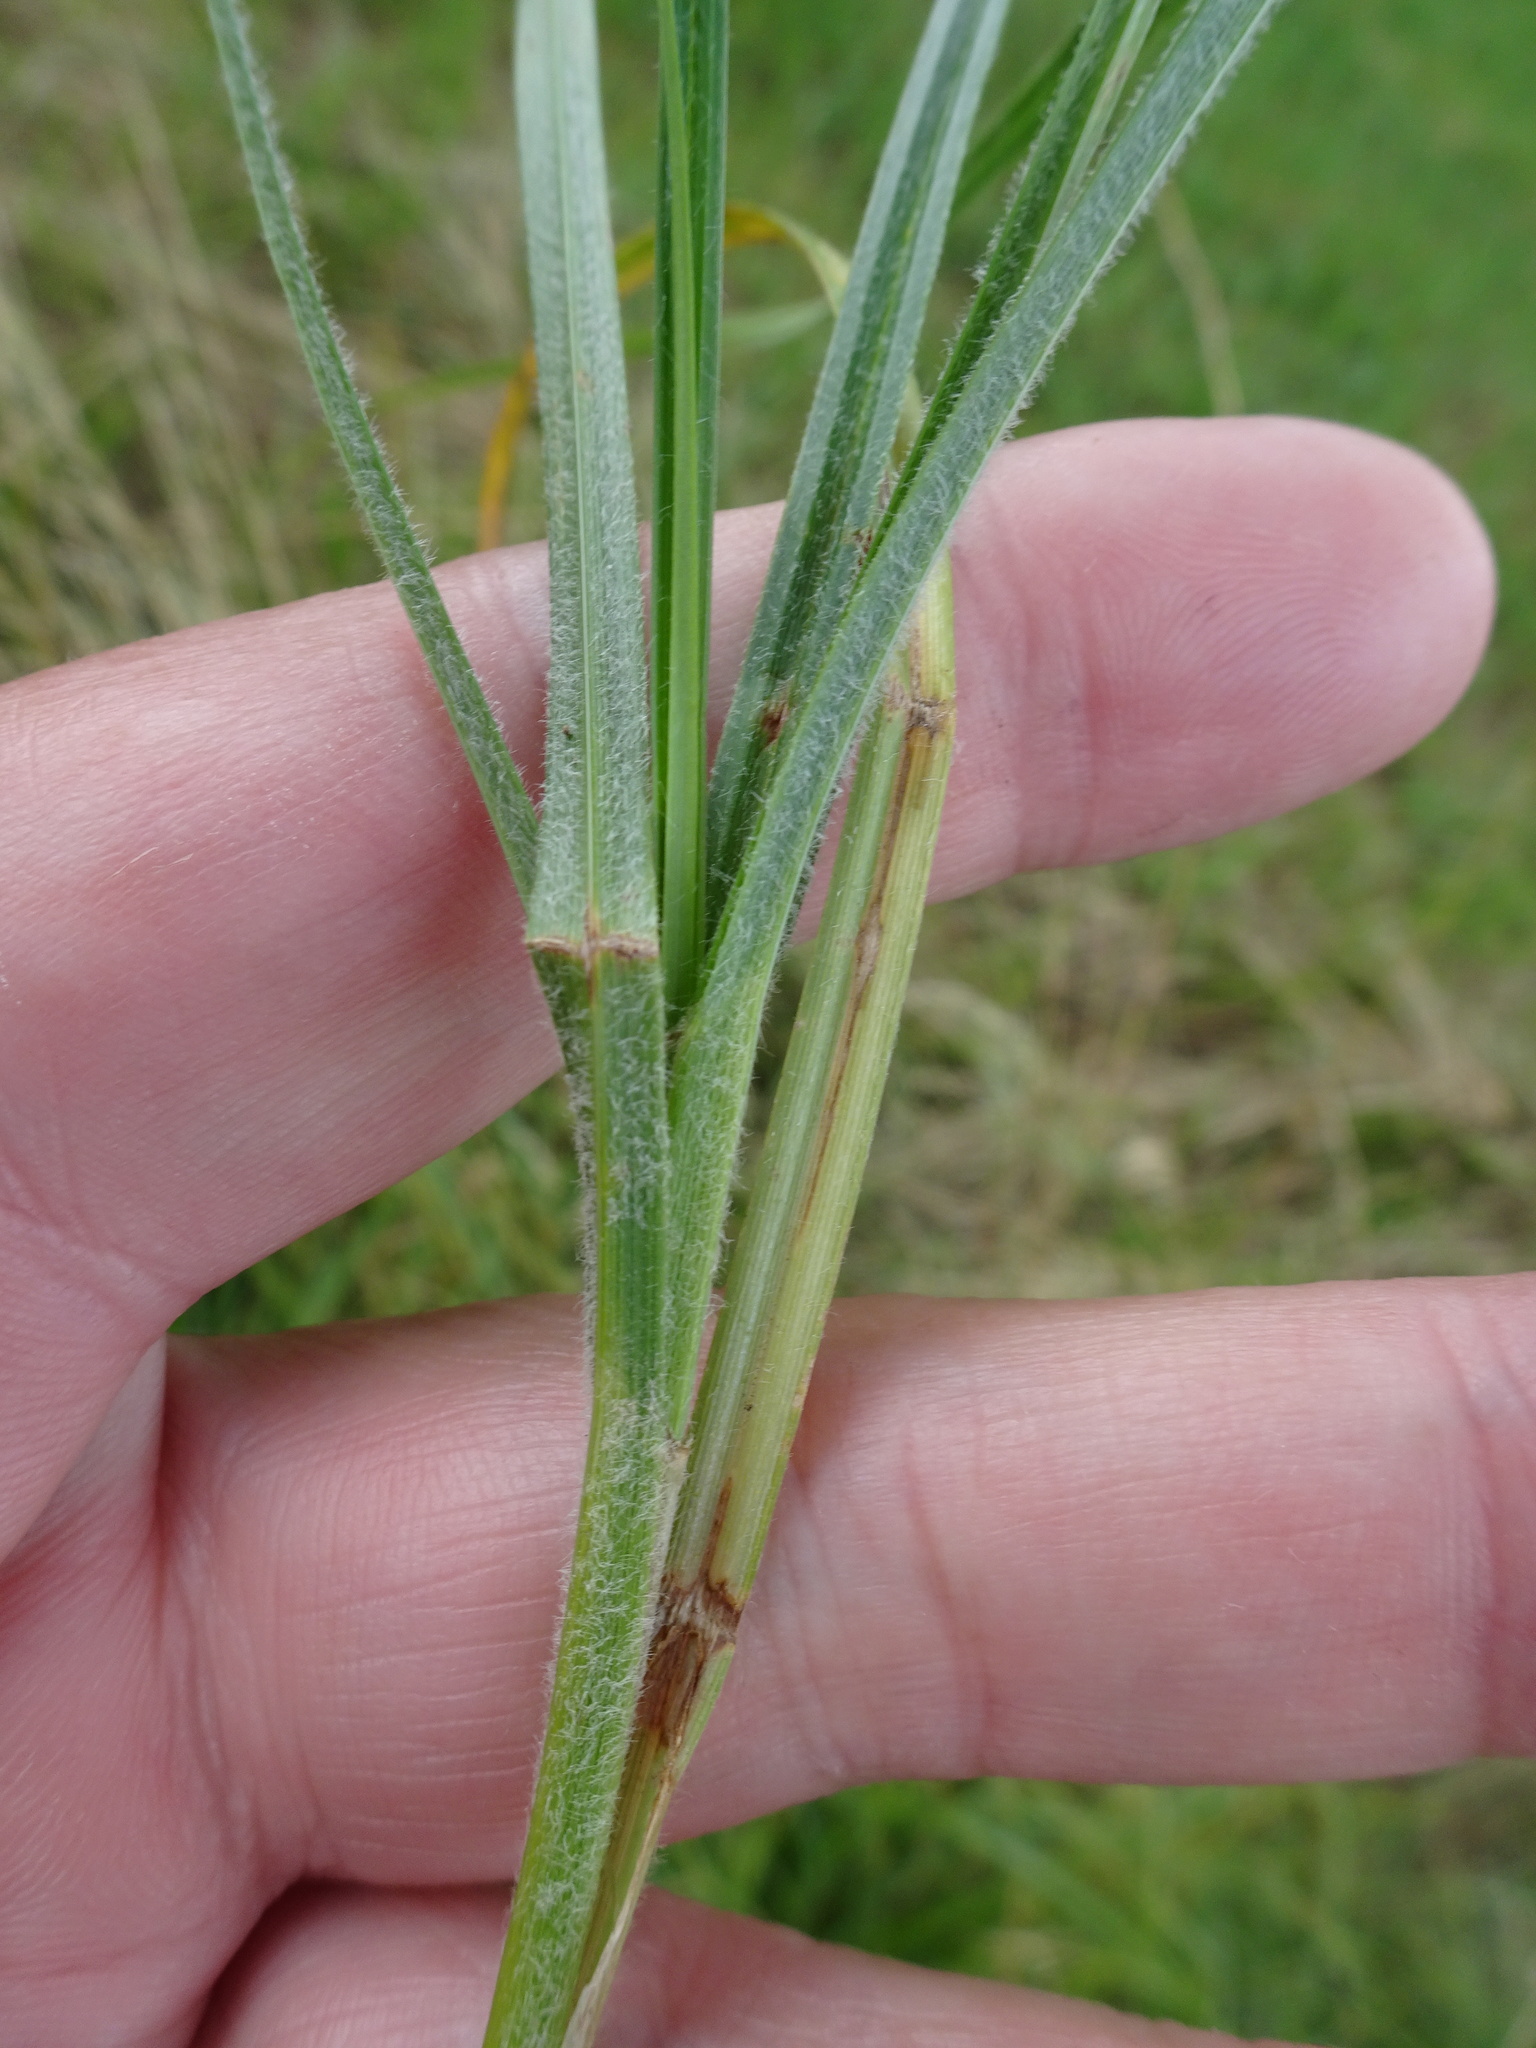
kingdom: Plantae
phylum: Tracheophyta
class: Liliopsida
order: Poales
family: Cyperaceae
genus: Carex
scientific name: Carex hirta
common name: Hairy sedge
